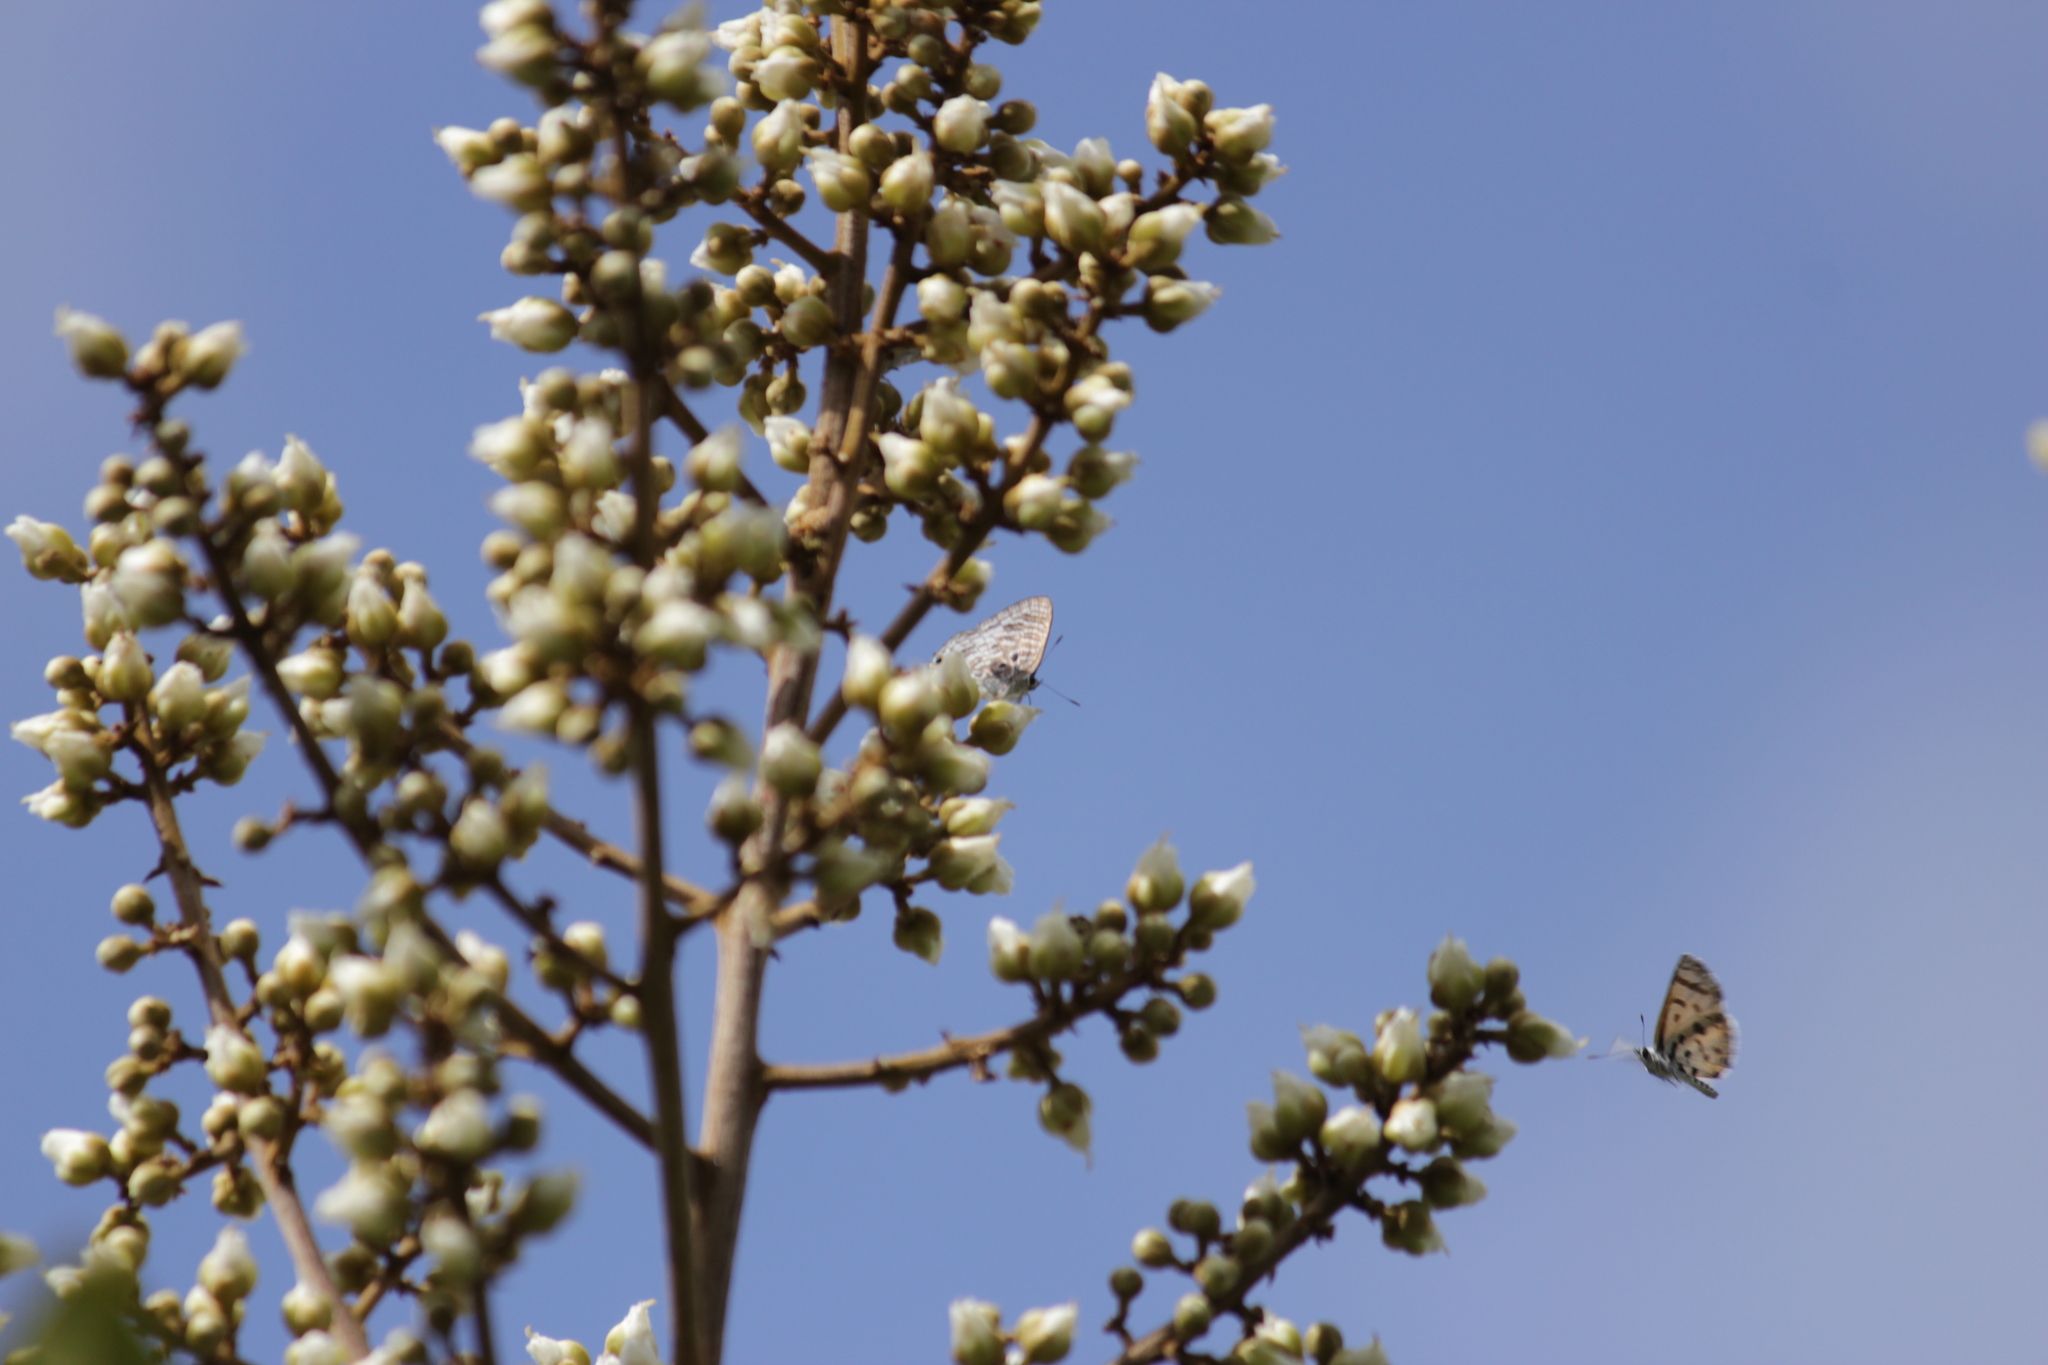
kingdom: Animalia
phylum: Arthropoda
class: Insecta
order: Lepidoptera
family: Lycaenidae
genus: Anthene
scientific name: Anthene larydas
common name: Forest hairtail
